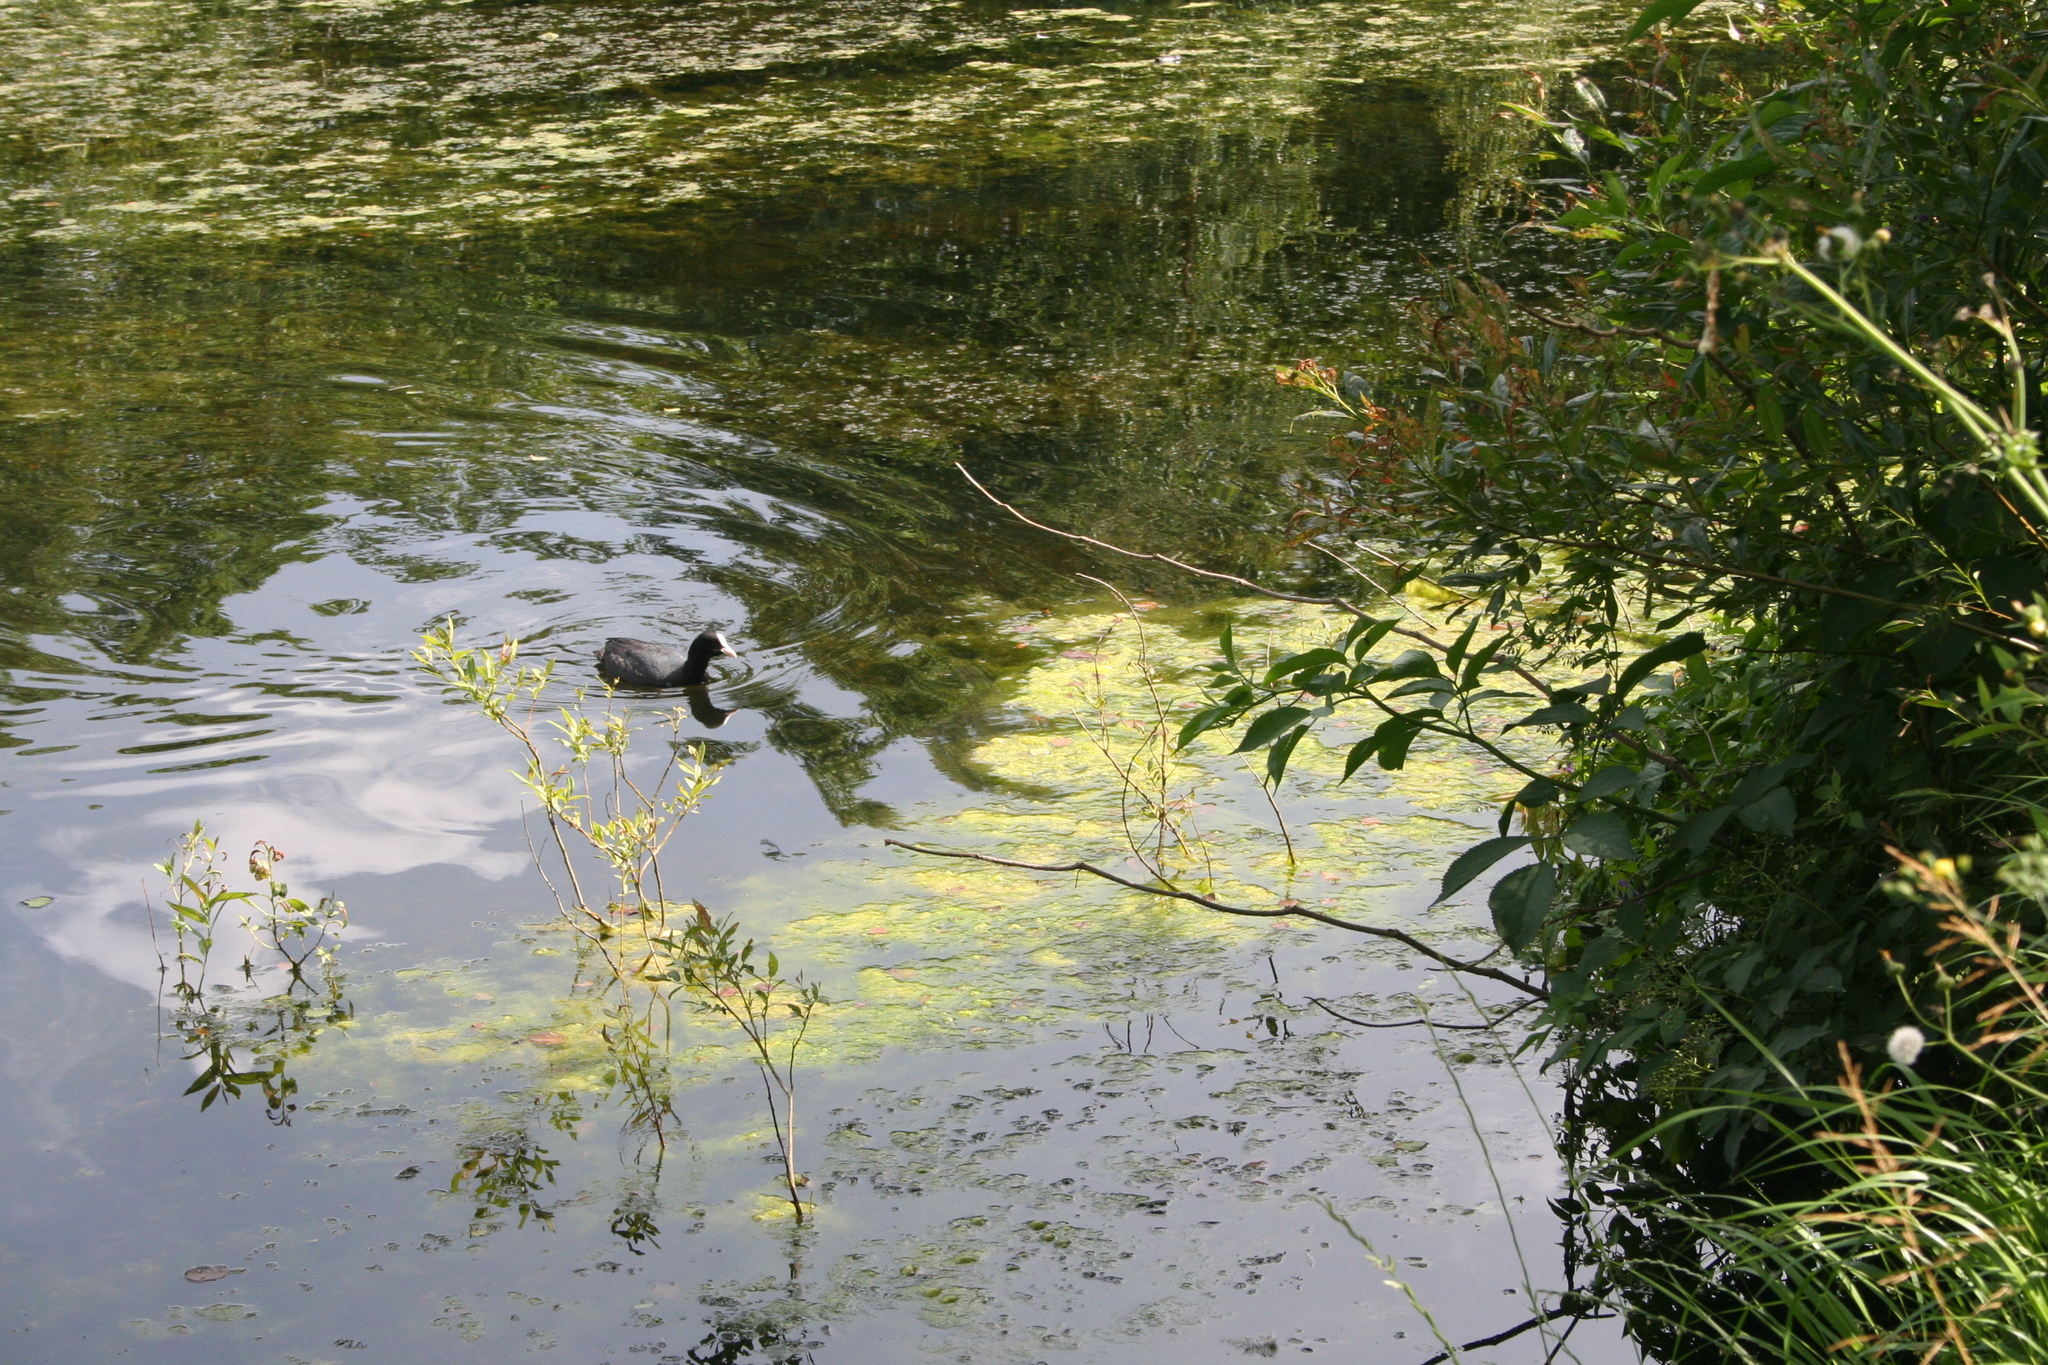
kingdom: Animalia
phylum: Chordata
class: Aves
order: Gruiformes
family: Rallidae
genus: Fulica
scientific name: Fulica atra
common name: Eurasian coot
